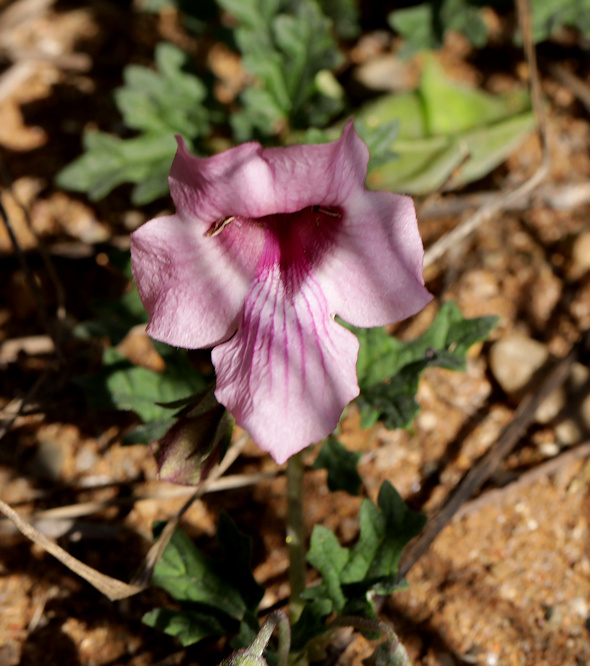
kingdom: Plantae
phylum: Tracheophyta
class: Magnoliopsida
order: Lamiales
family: Pedaliaceae
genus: Dicerocaryum
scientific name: Dicerocaryum senecioides
